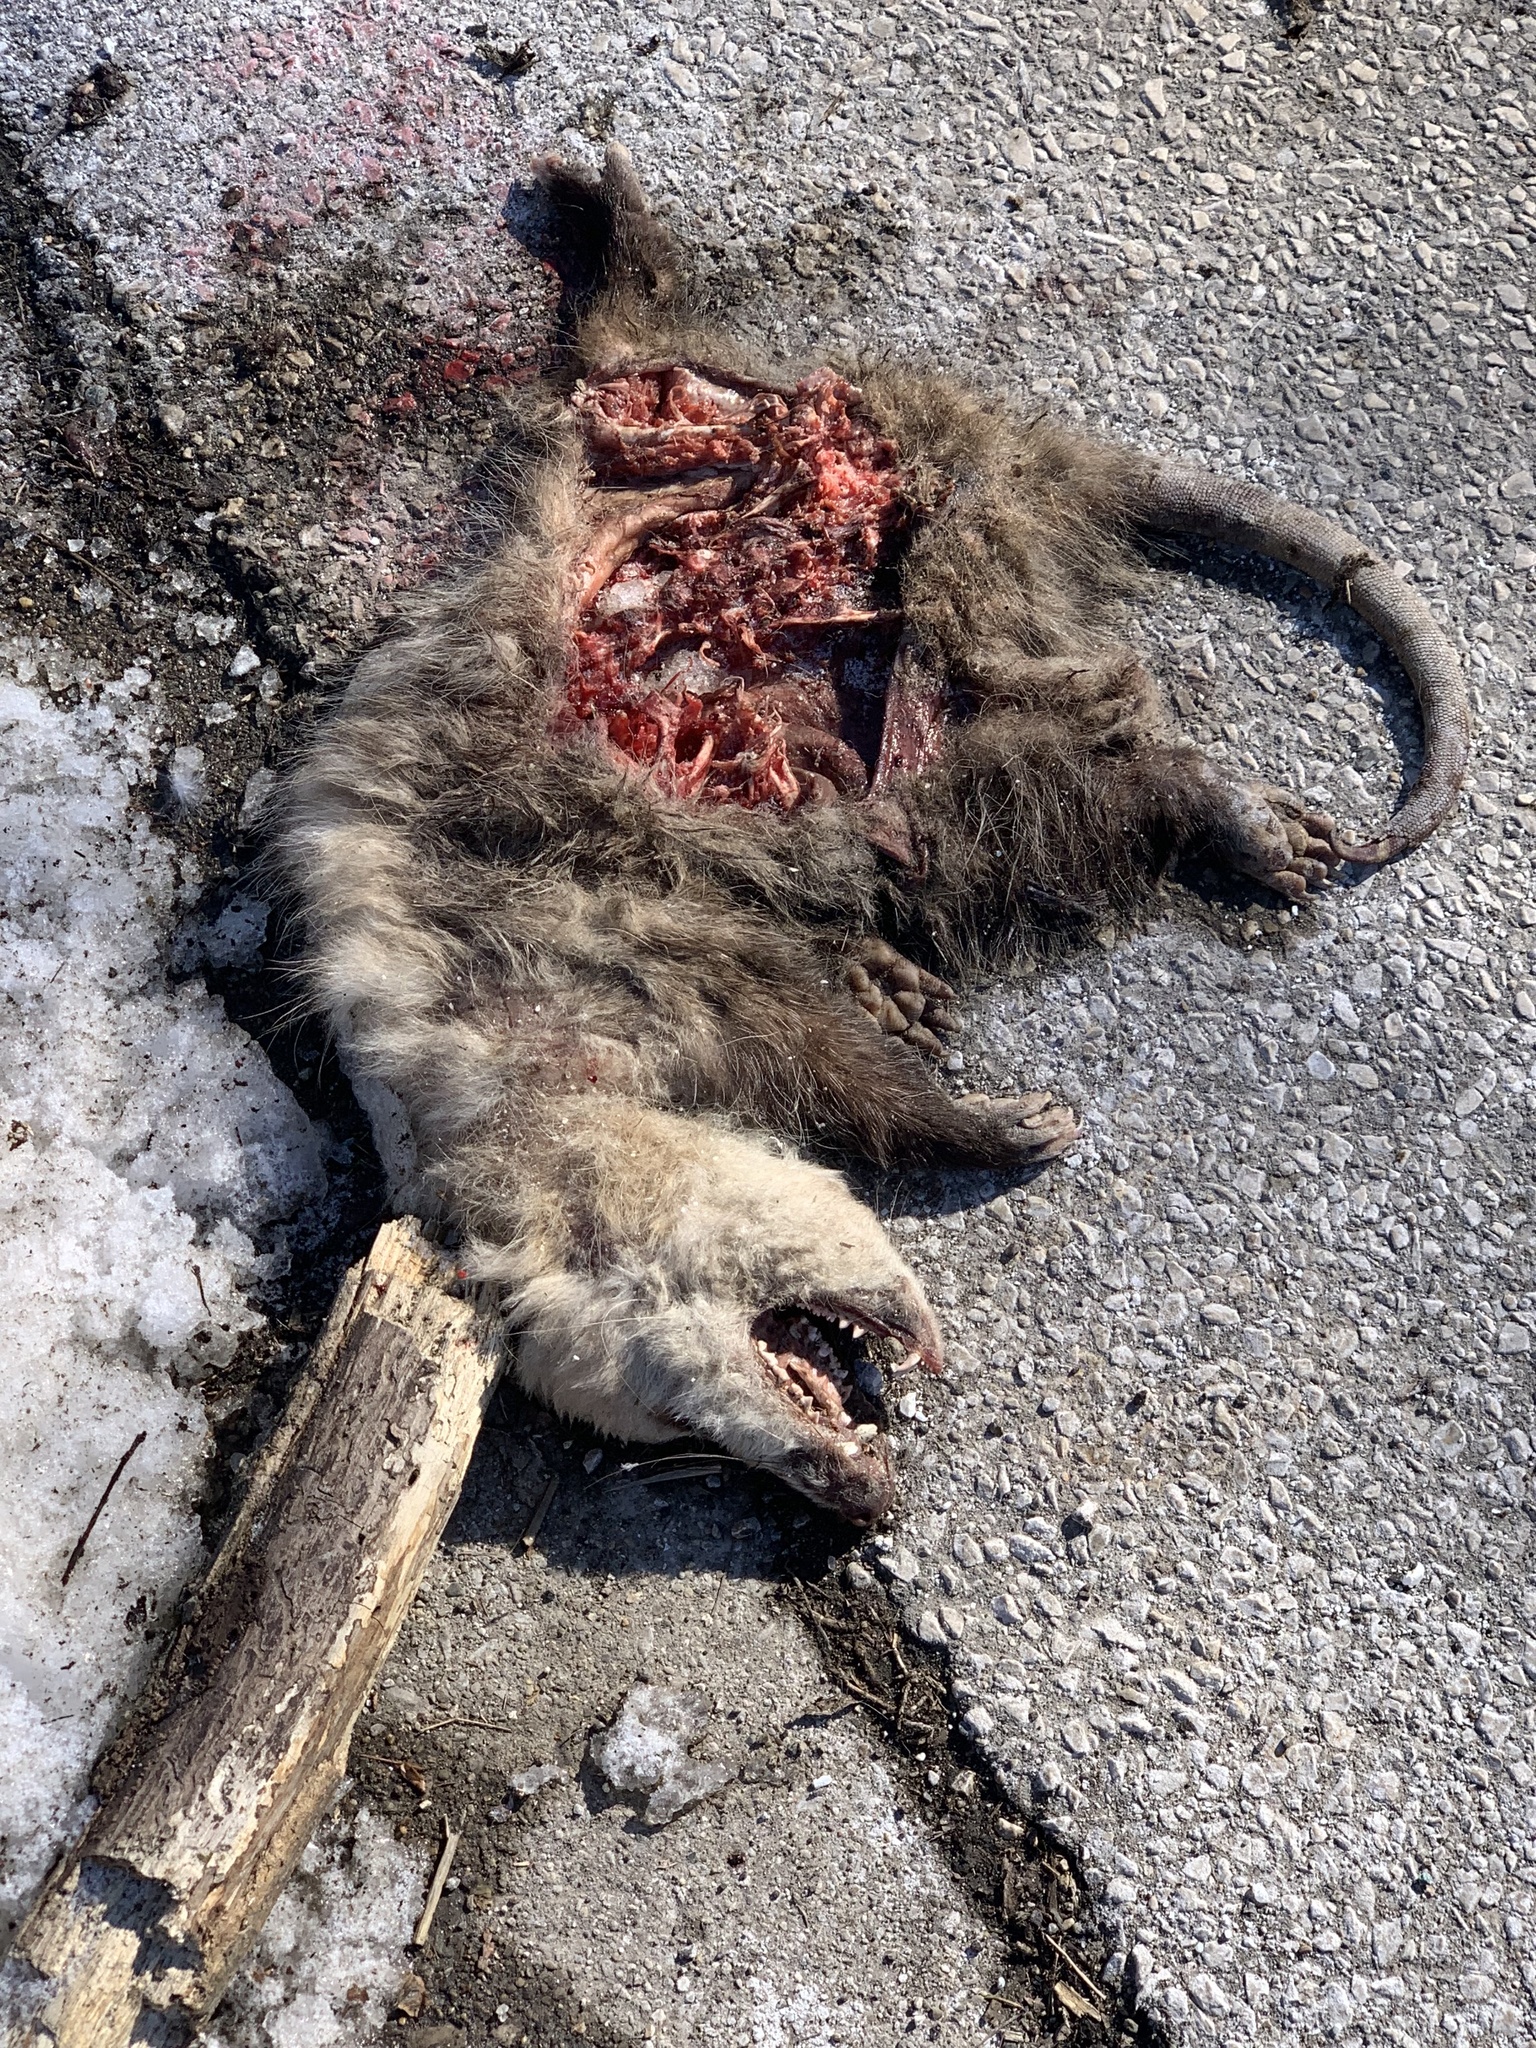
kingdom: Animalia
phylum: Chordata
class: Mammalia
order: Didelphimorphia
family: Didelphidae
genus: Didelphis
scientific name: Didelphis virginiana
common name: Virginia opossum
